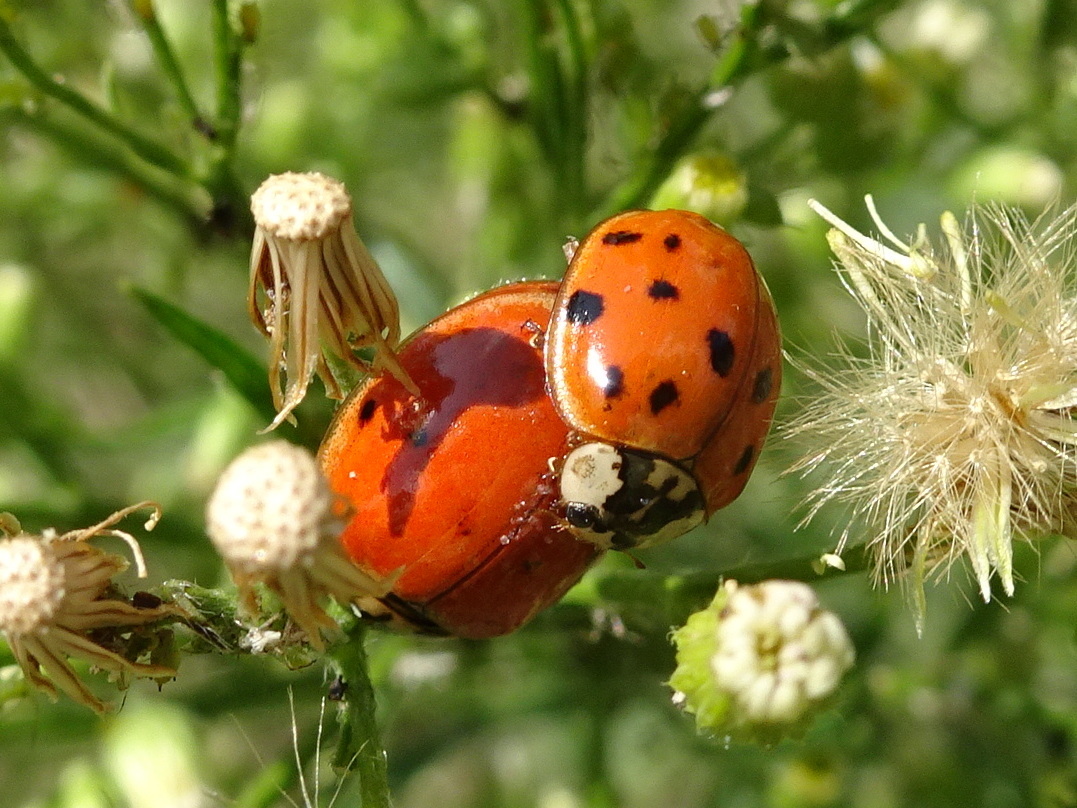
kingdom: Animalia
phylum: Arthropoda
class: Insecta
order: Coleoptera
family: Coccinellidae
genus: Harmonia
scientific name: Harmonia axyridis
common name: Harlequin ladybird
